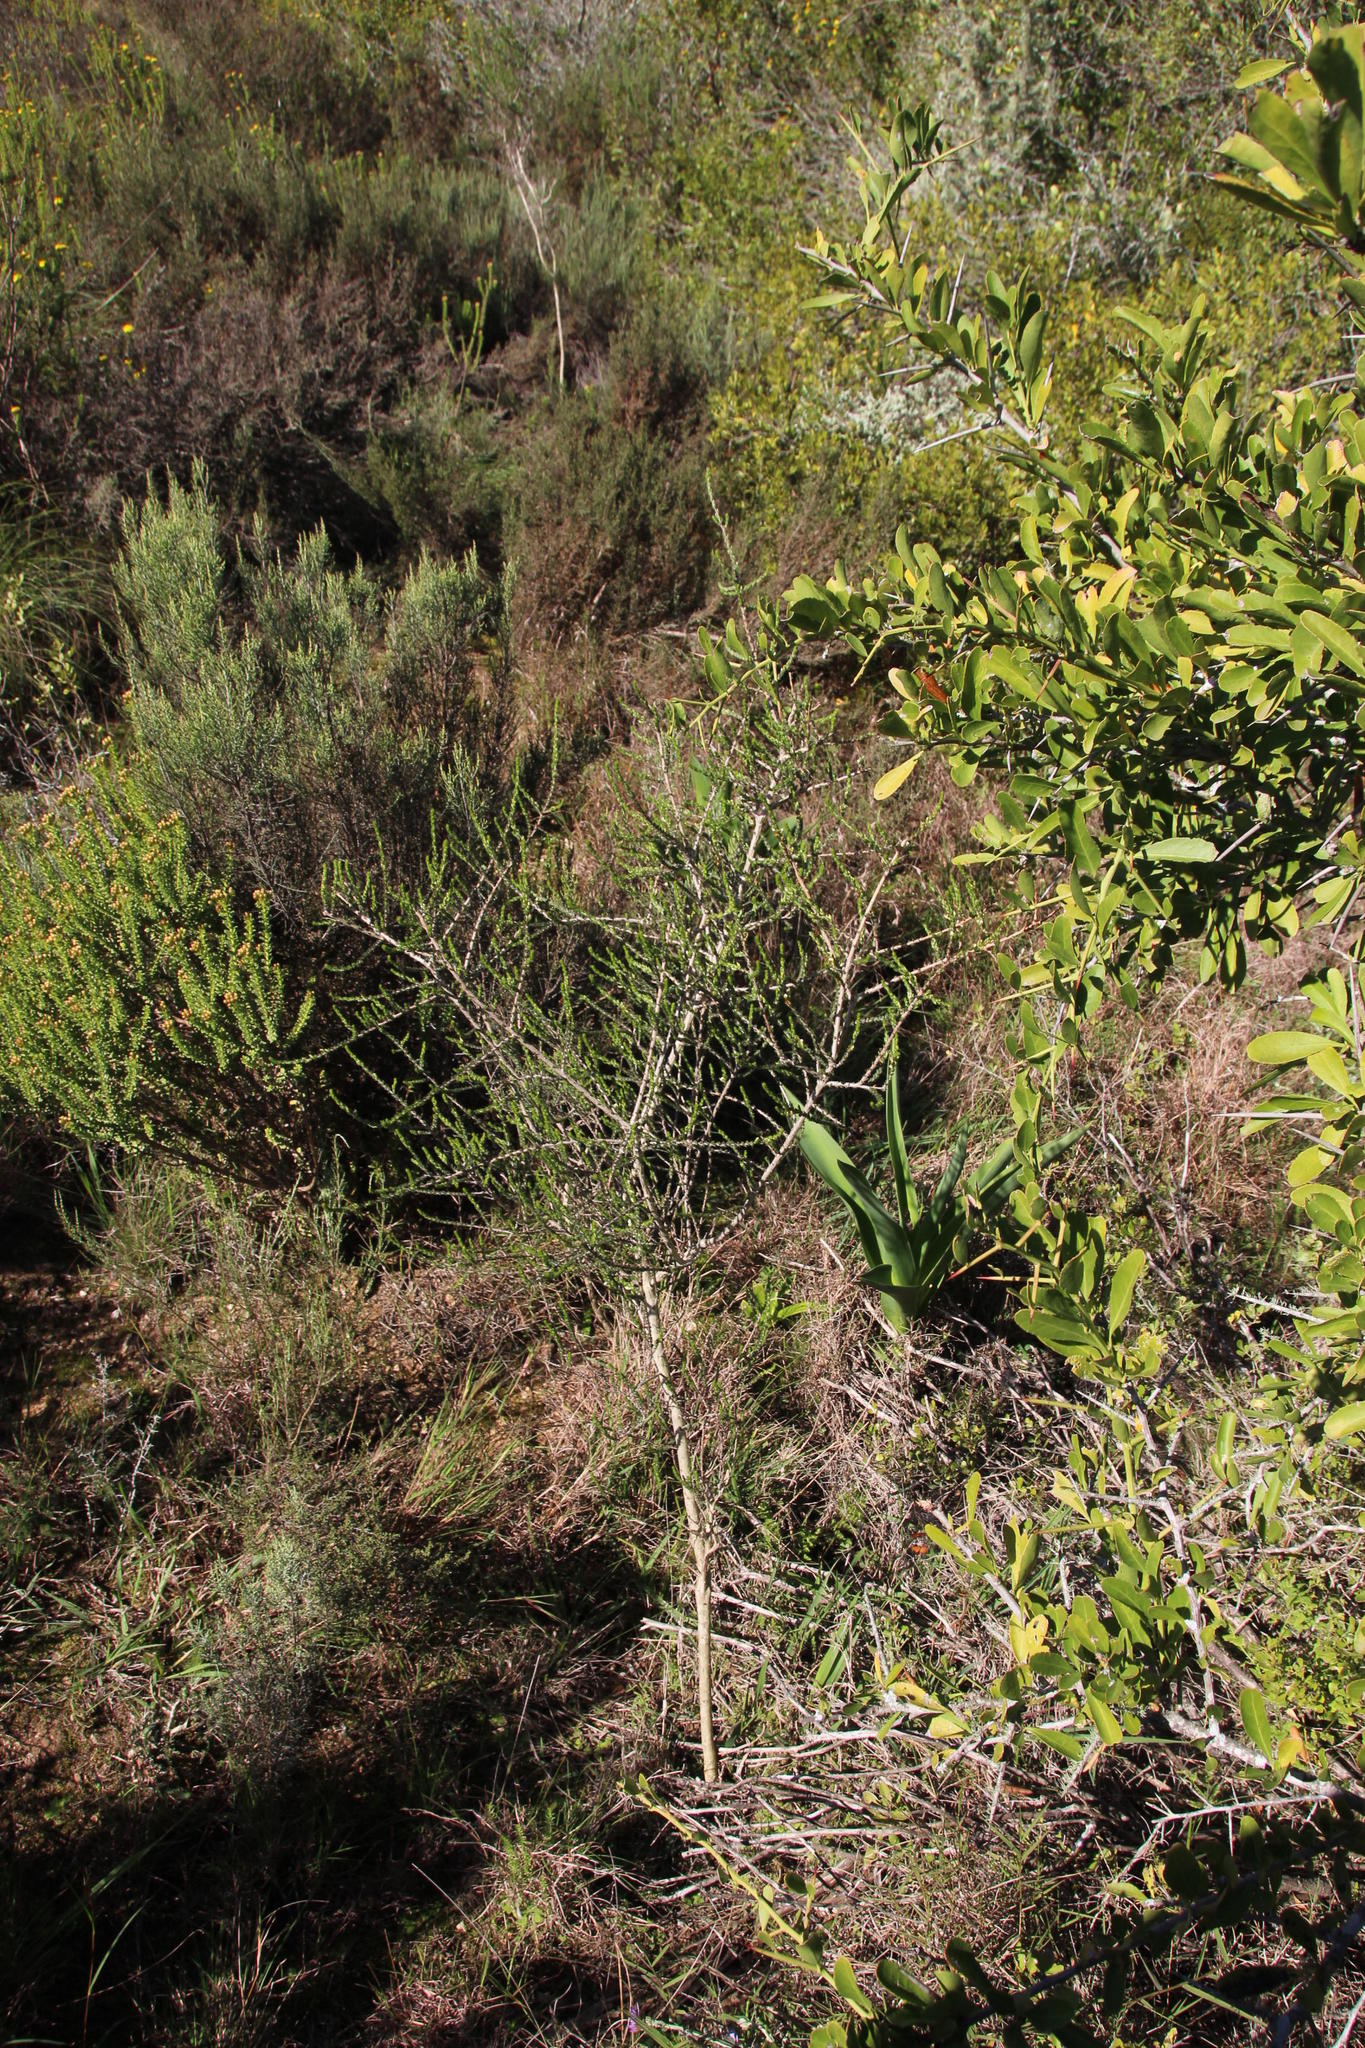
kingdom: Plantae
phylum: Tracheophyta
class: Magnoliopsida
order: Fabales
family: Fabaceae
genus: Aspalathus
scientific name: Aspalathus hispida
